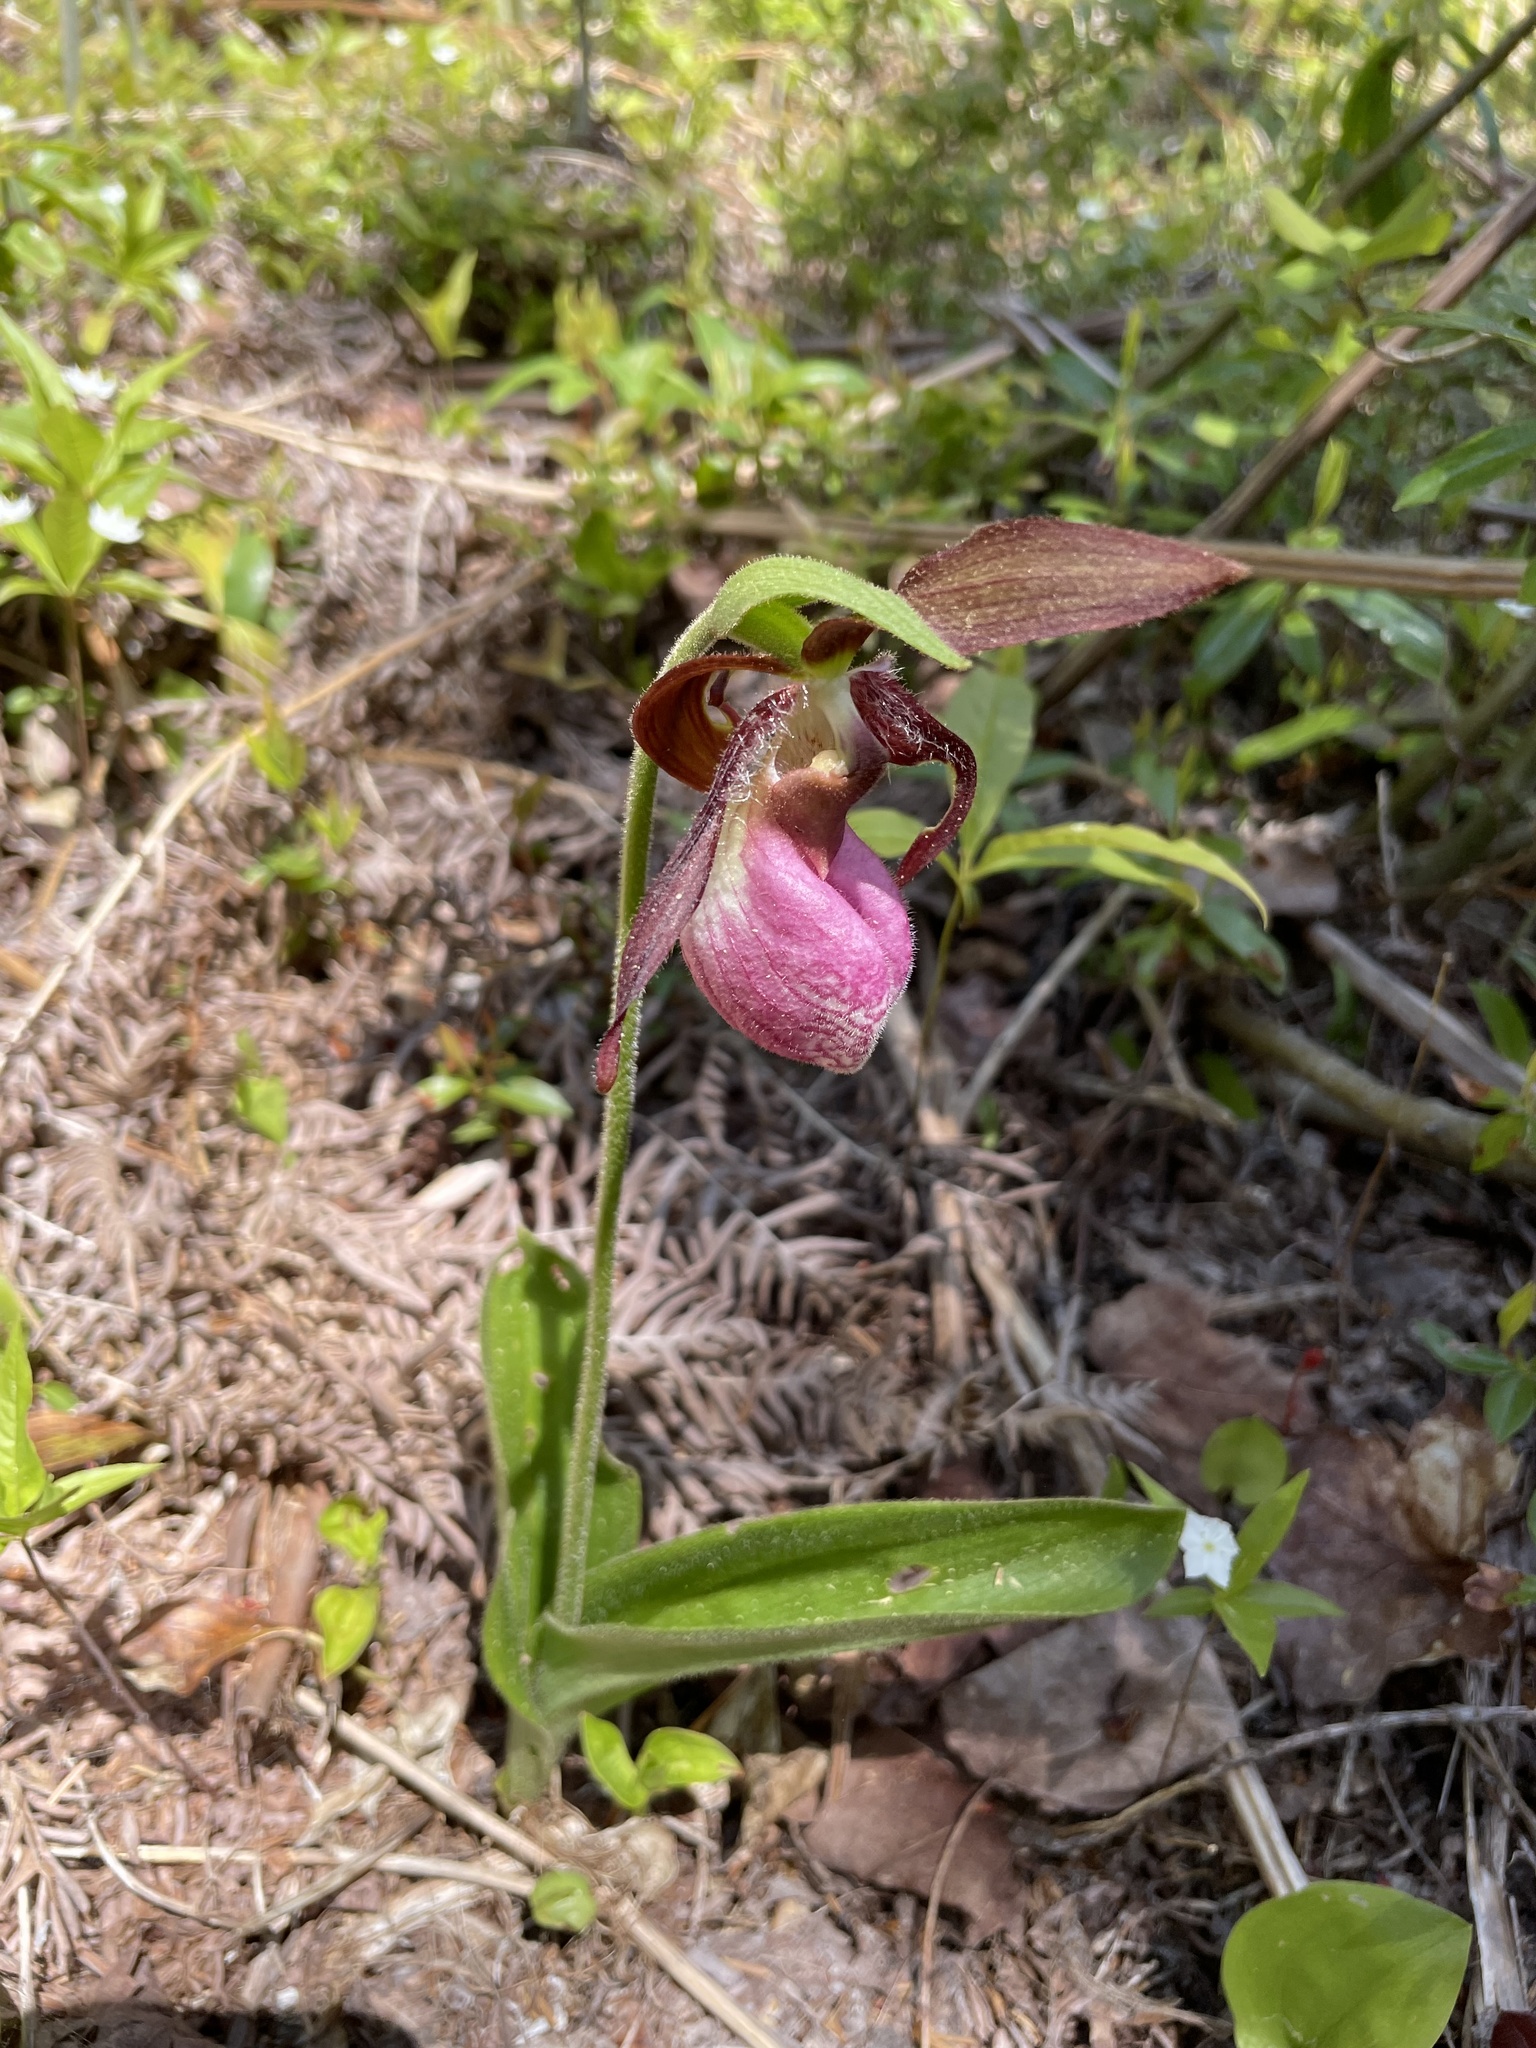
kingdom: Plantae
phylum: Tracheophyta
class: Liliopsida
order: Asparagales
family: Orchidaceae
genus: Cypripedium
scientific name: Cypripedium acaule
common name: Pink lady's-slipper
